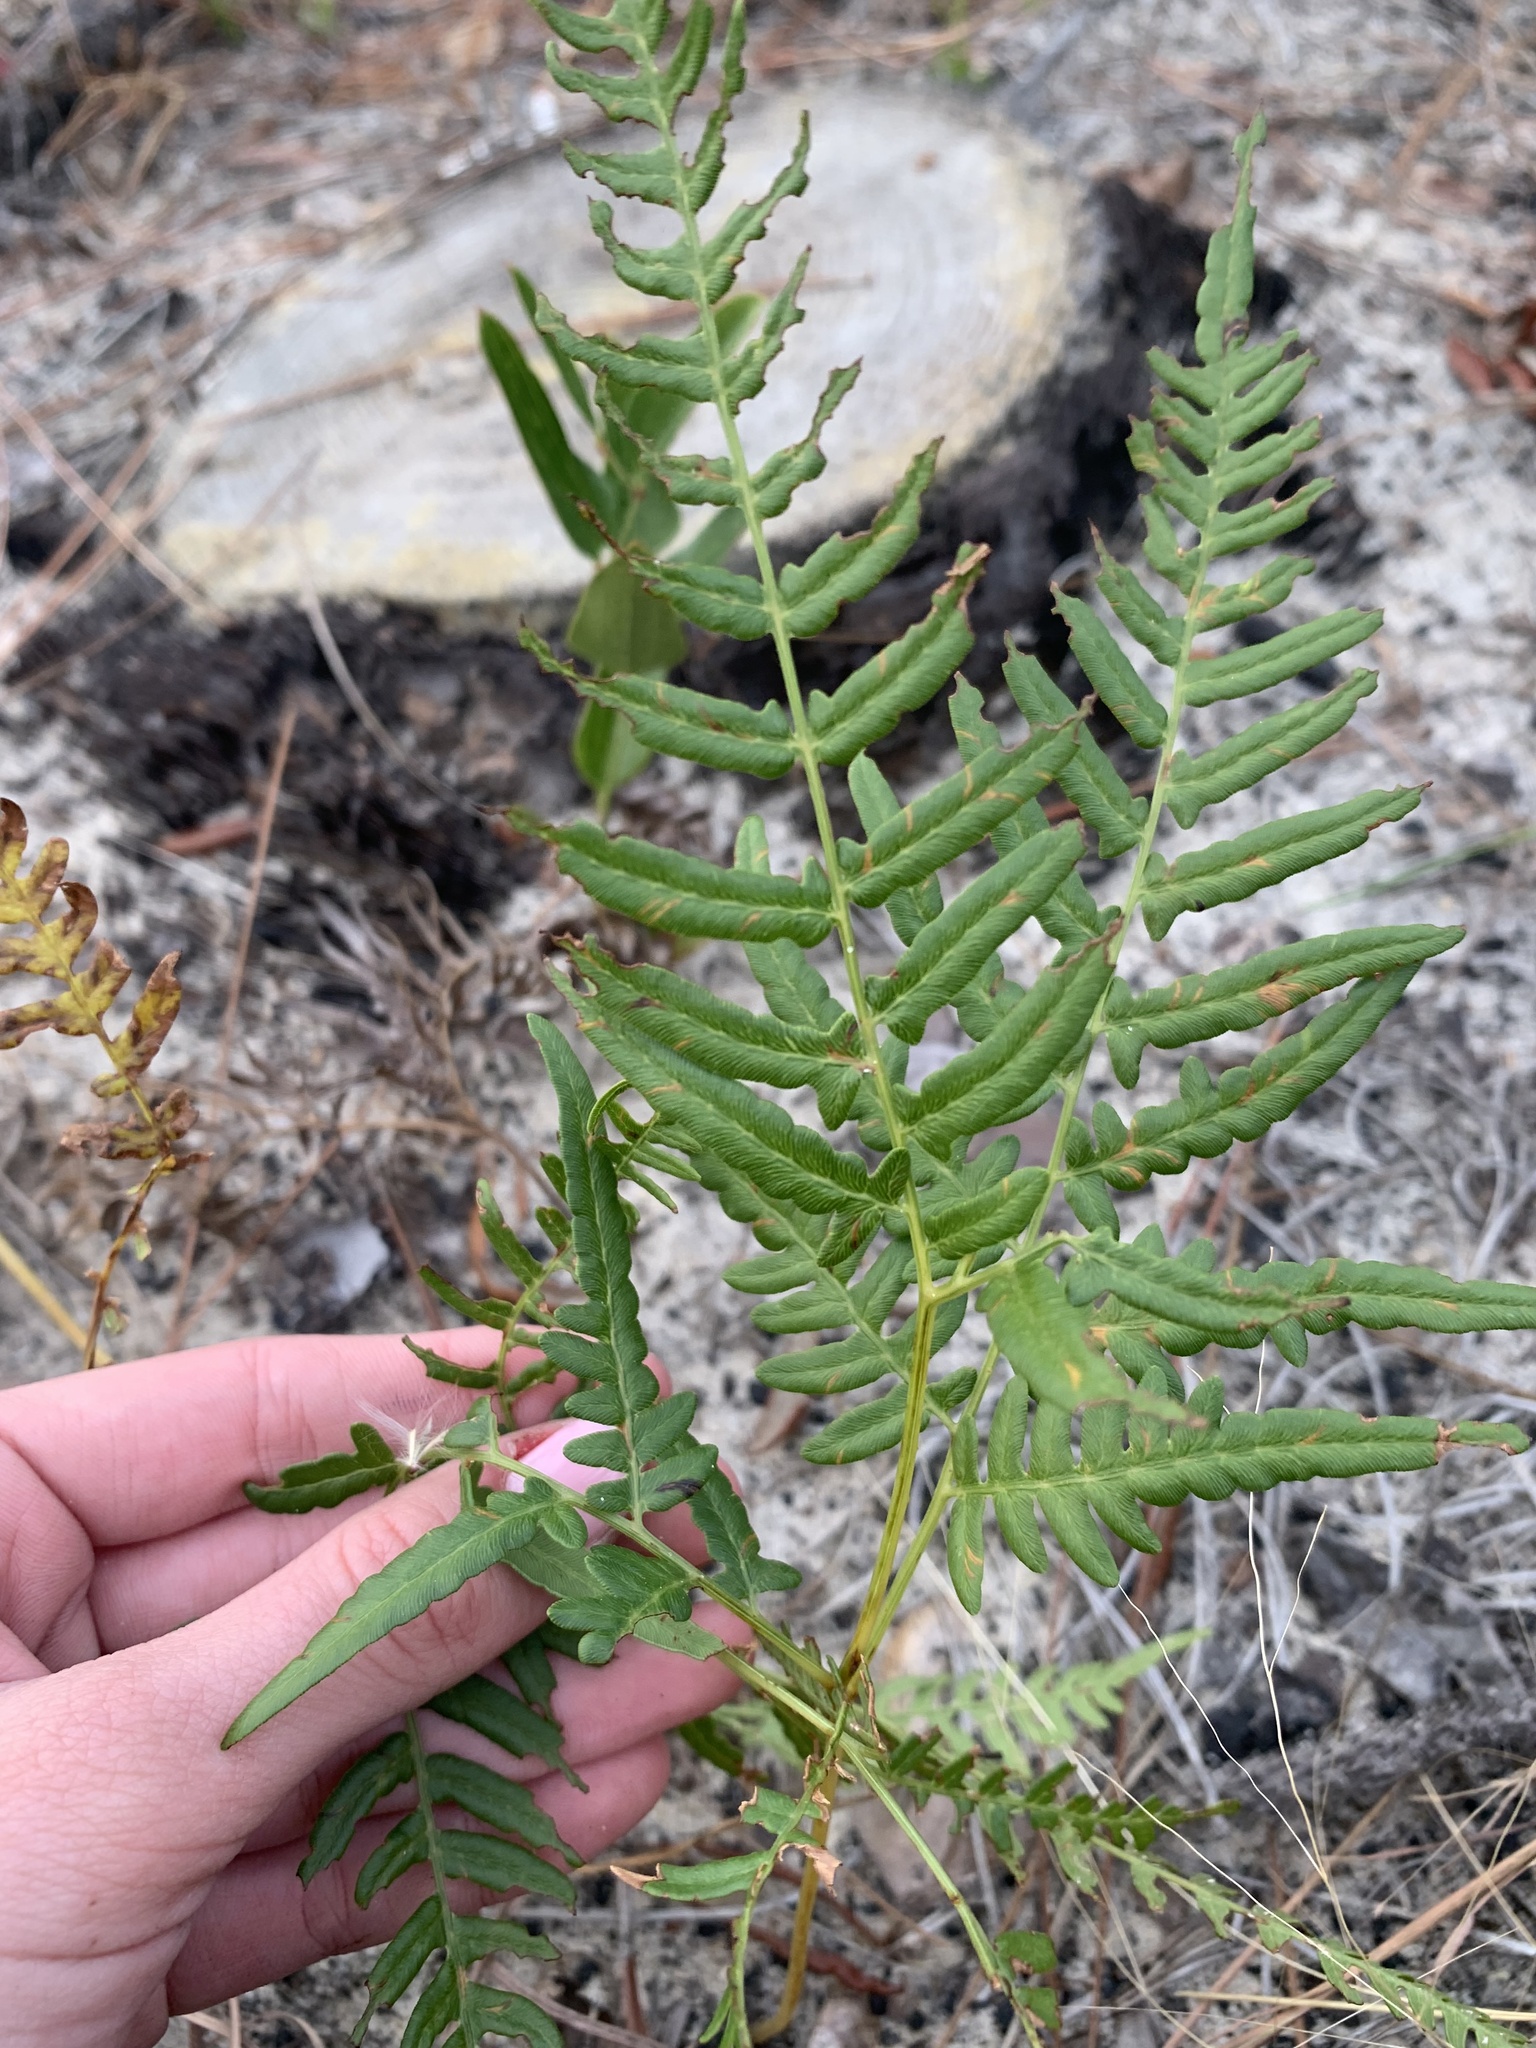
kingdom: Plantae
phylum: Tracheophyta
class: Polypodiopsida
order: Polypodiales
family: Dennstaedtiaceae
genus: Pteridium
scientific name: Pteridium aquilinum
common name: Bracken
